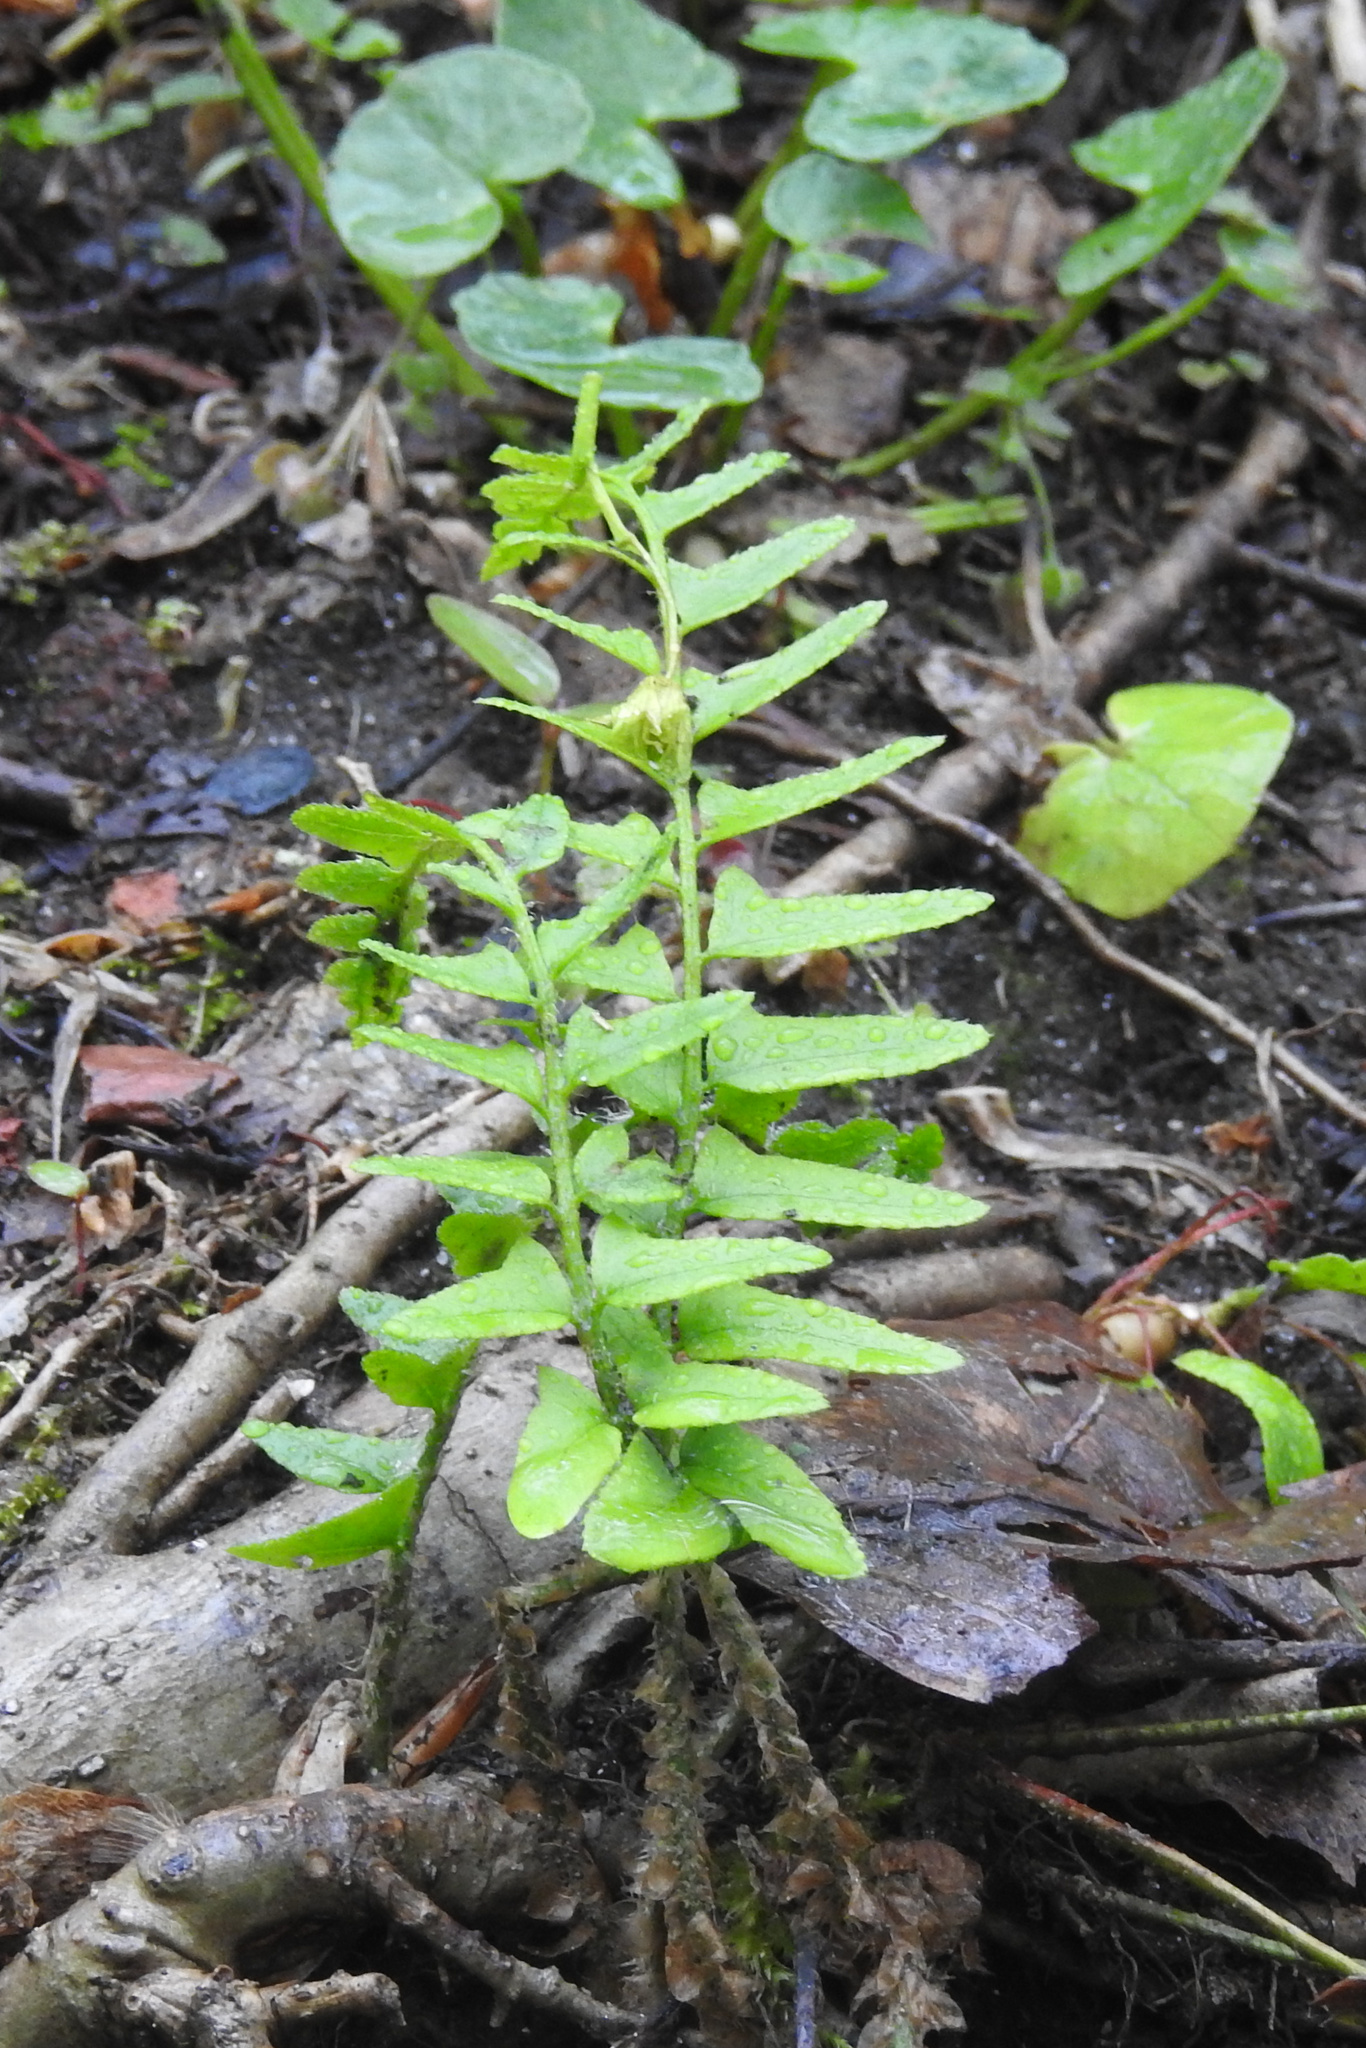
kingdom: Plantae
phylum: Tracheophyta
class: Polypodiopsida
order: Polypodiales
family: Dryopteridaceae
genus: Polystichum
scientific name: Polystichum acrostichoides
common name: Christmas fern
